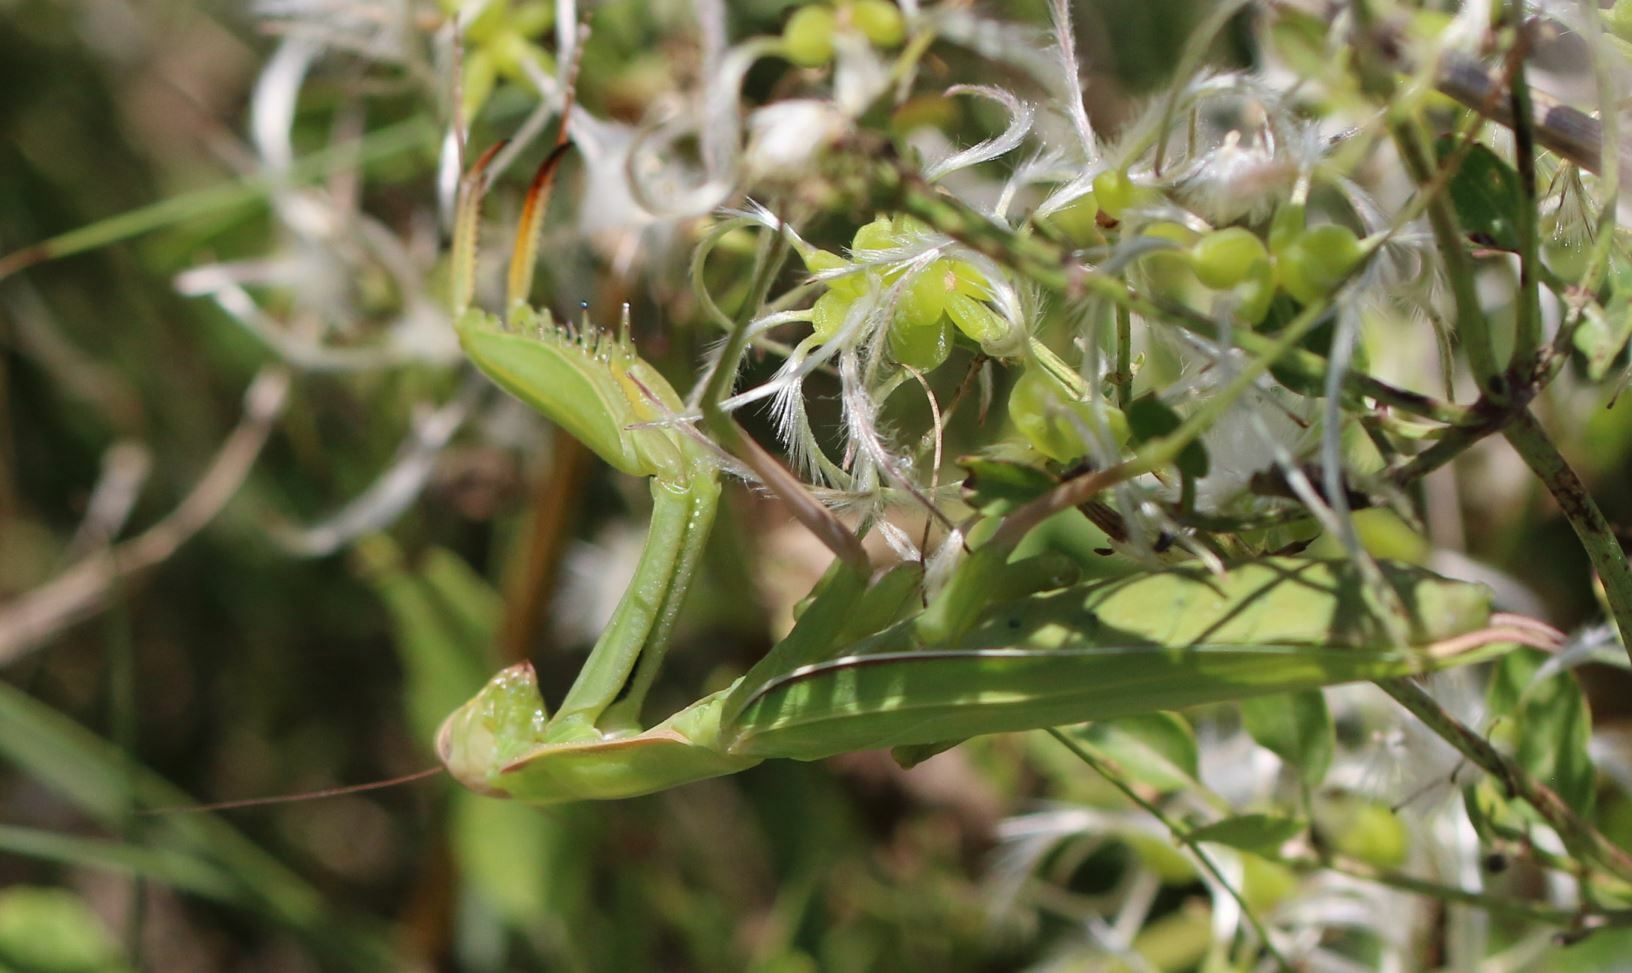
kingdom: Animalia
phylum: Arthropoda
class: Insecta
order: Mantodea
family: Mantidae
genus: Mantis
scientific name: Mantis religiosa
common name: Praying mantis
